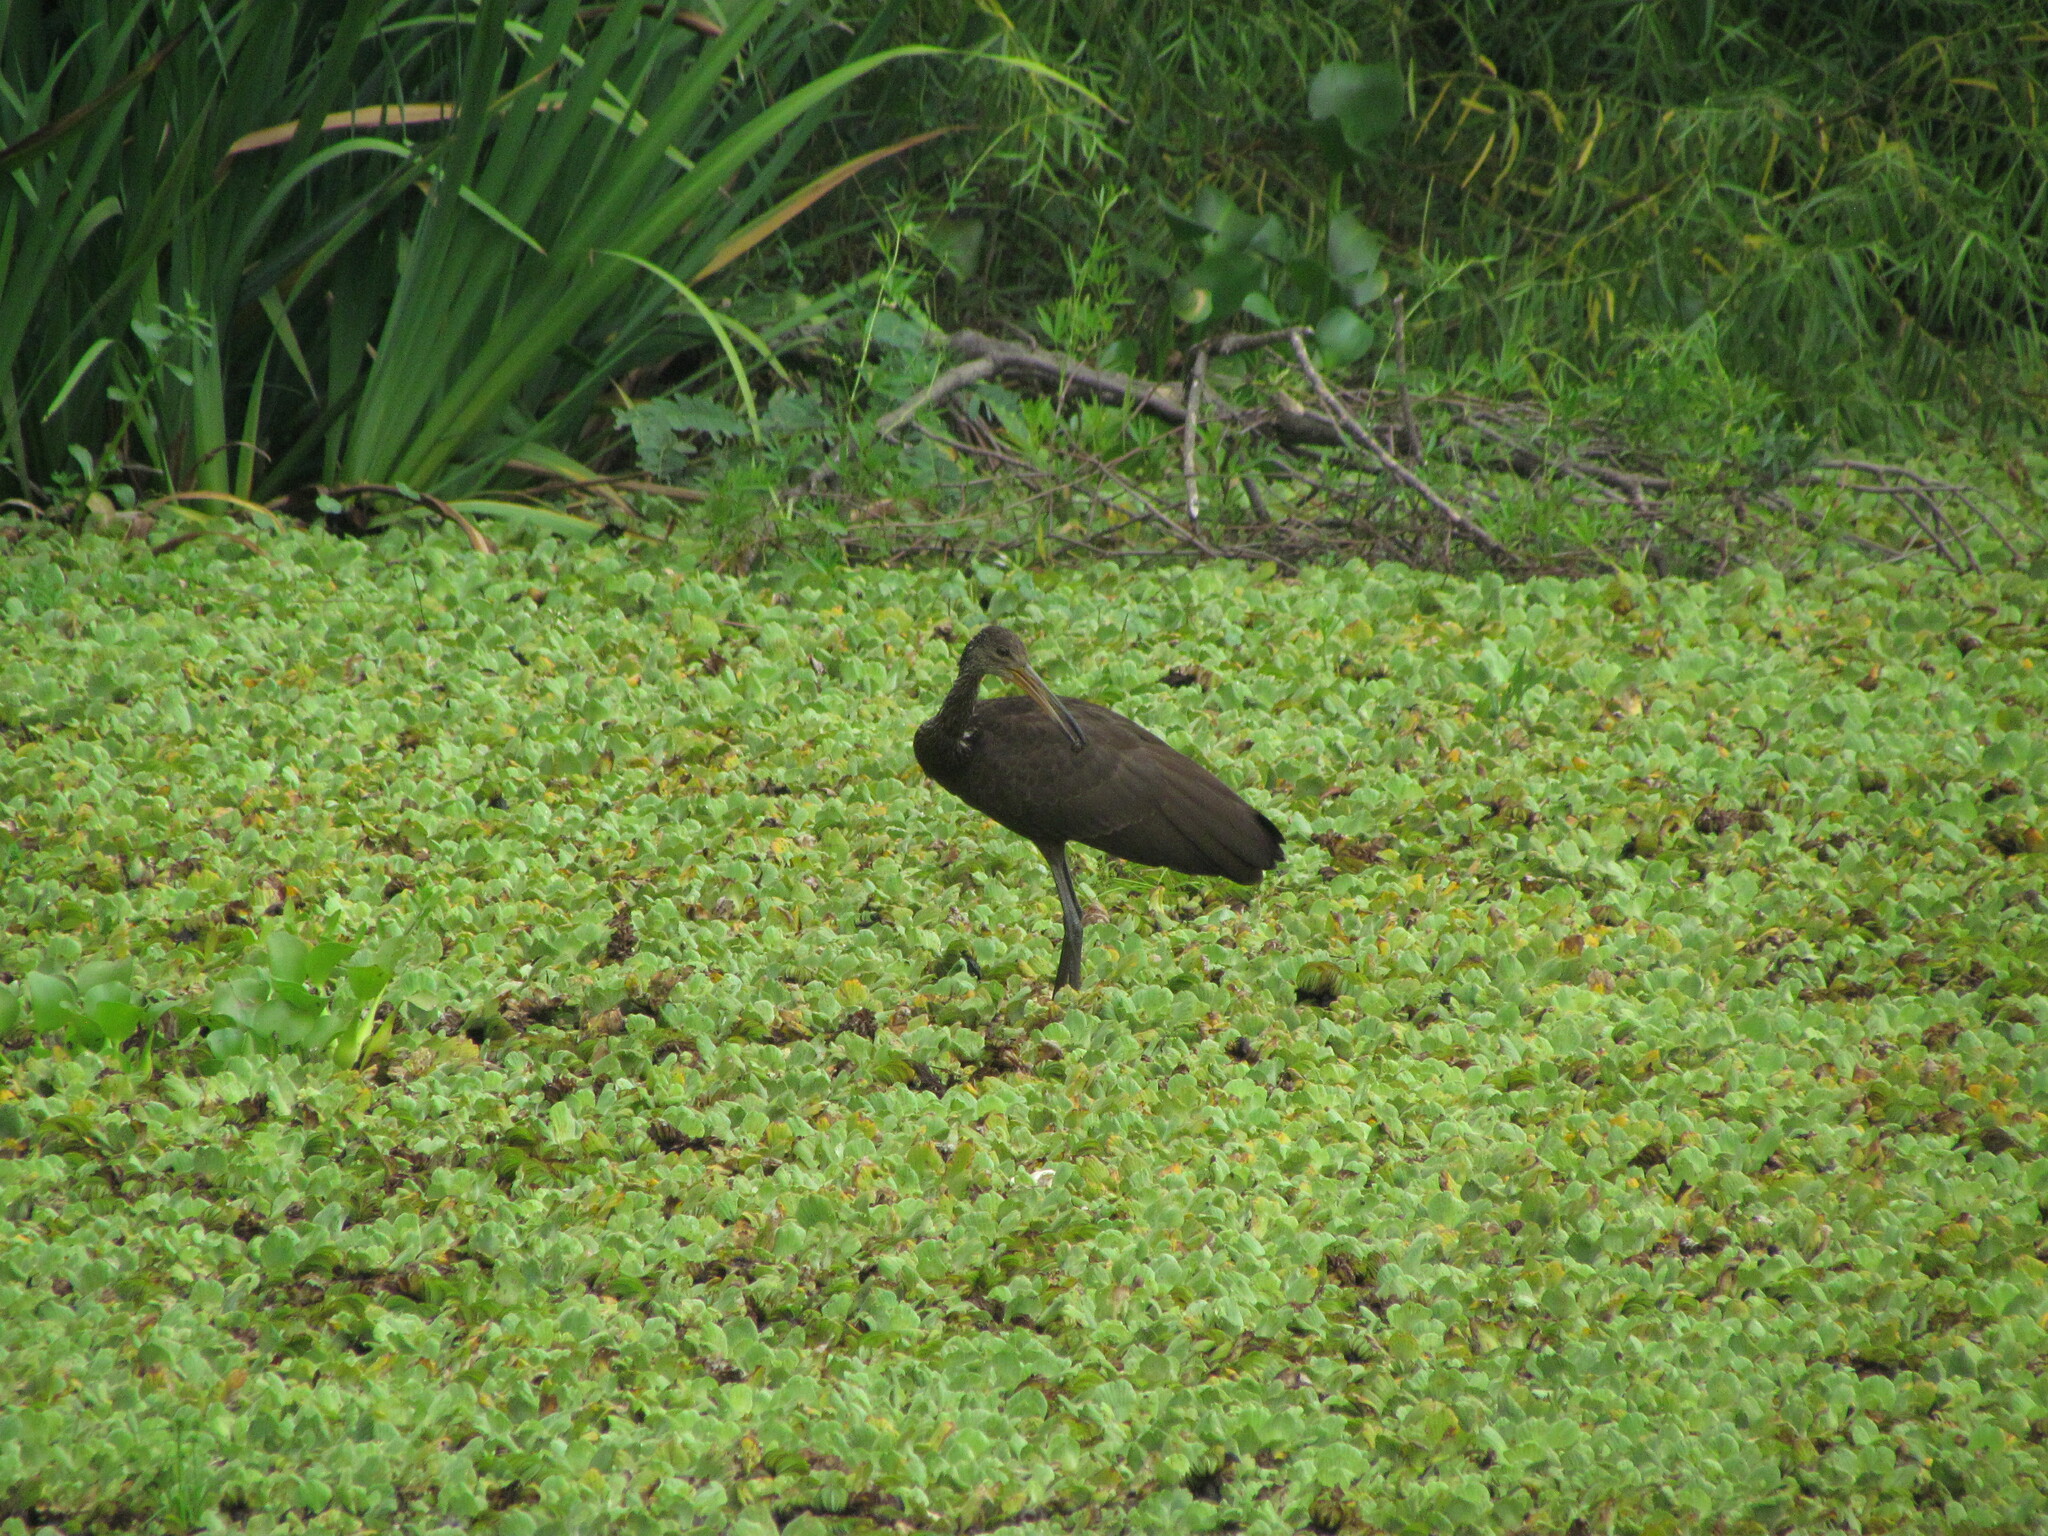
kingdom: Animalia
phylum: Chordata
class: Aves
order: Gruiformes
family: Aramidae
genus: Aramus
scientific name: Aramus guarauna
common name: Limpkin
